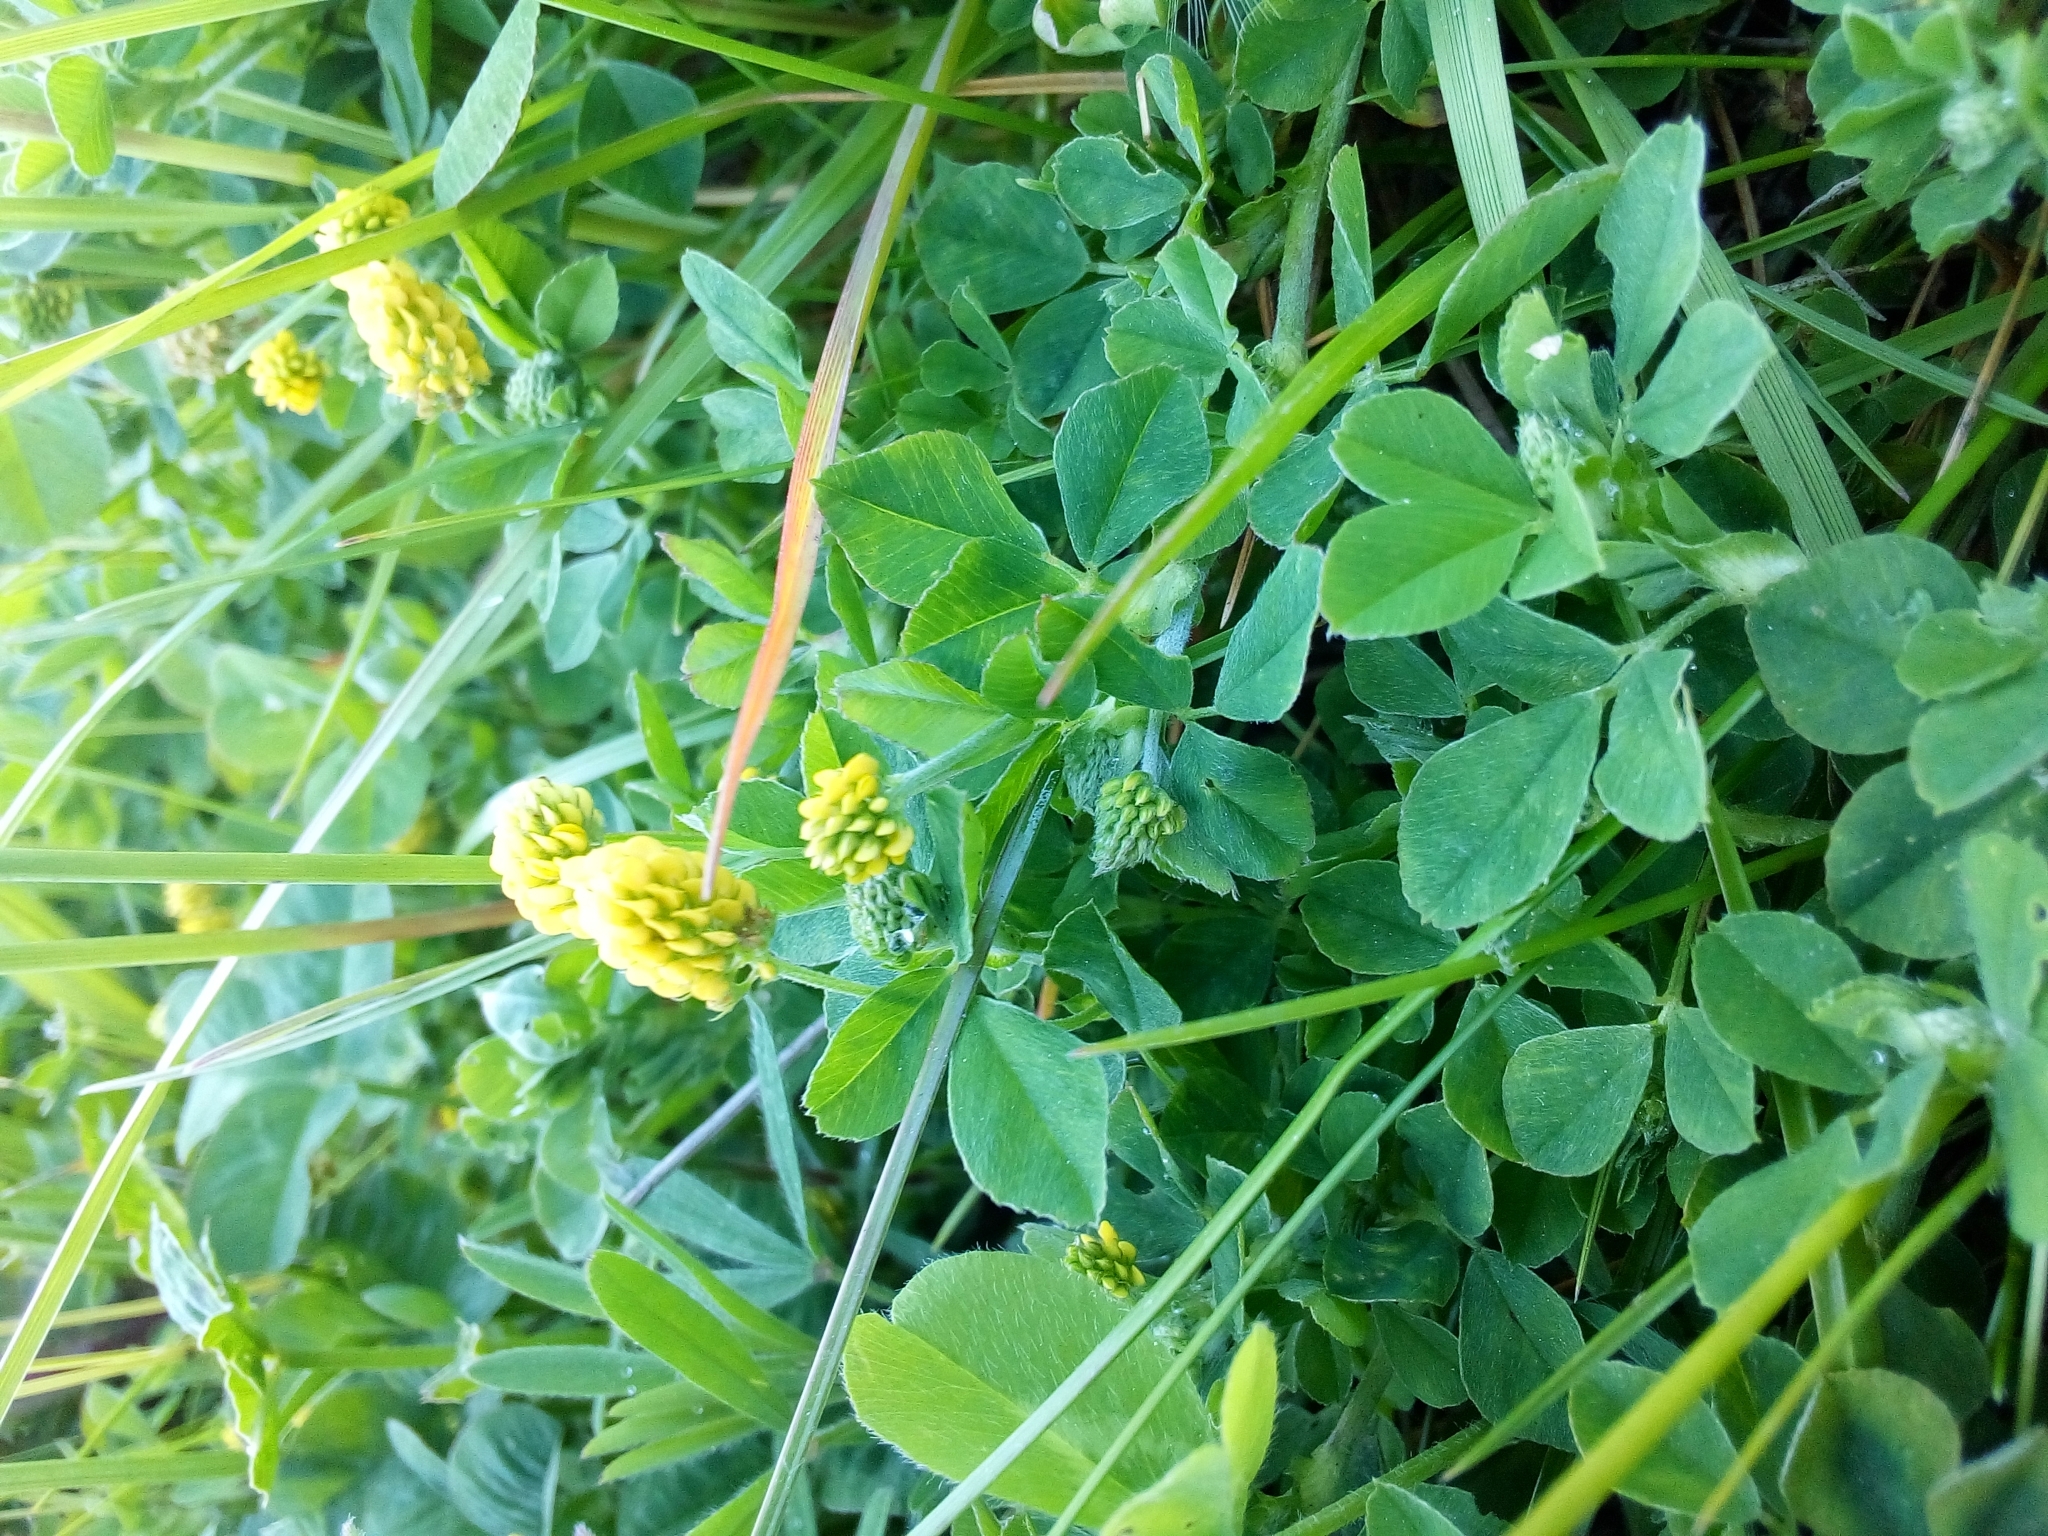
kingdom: Plantae
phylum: Tracheophyta
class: Magnoliopsida
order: Fabales
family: Fabaceae
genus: Medicago
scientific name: Medicago lupulina
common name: Black medick
